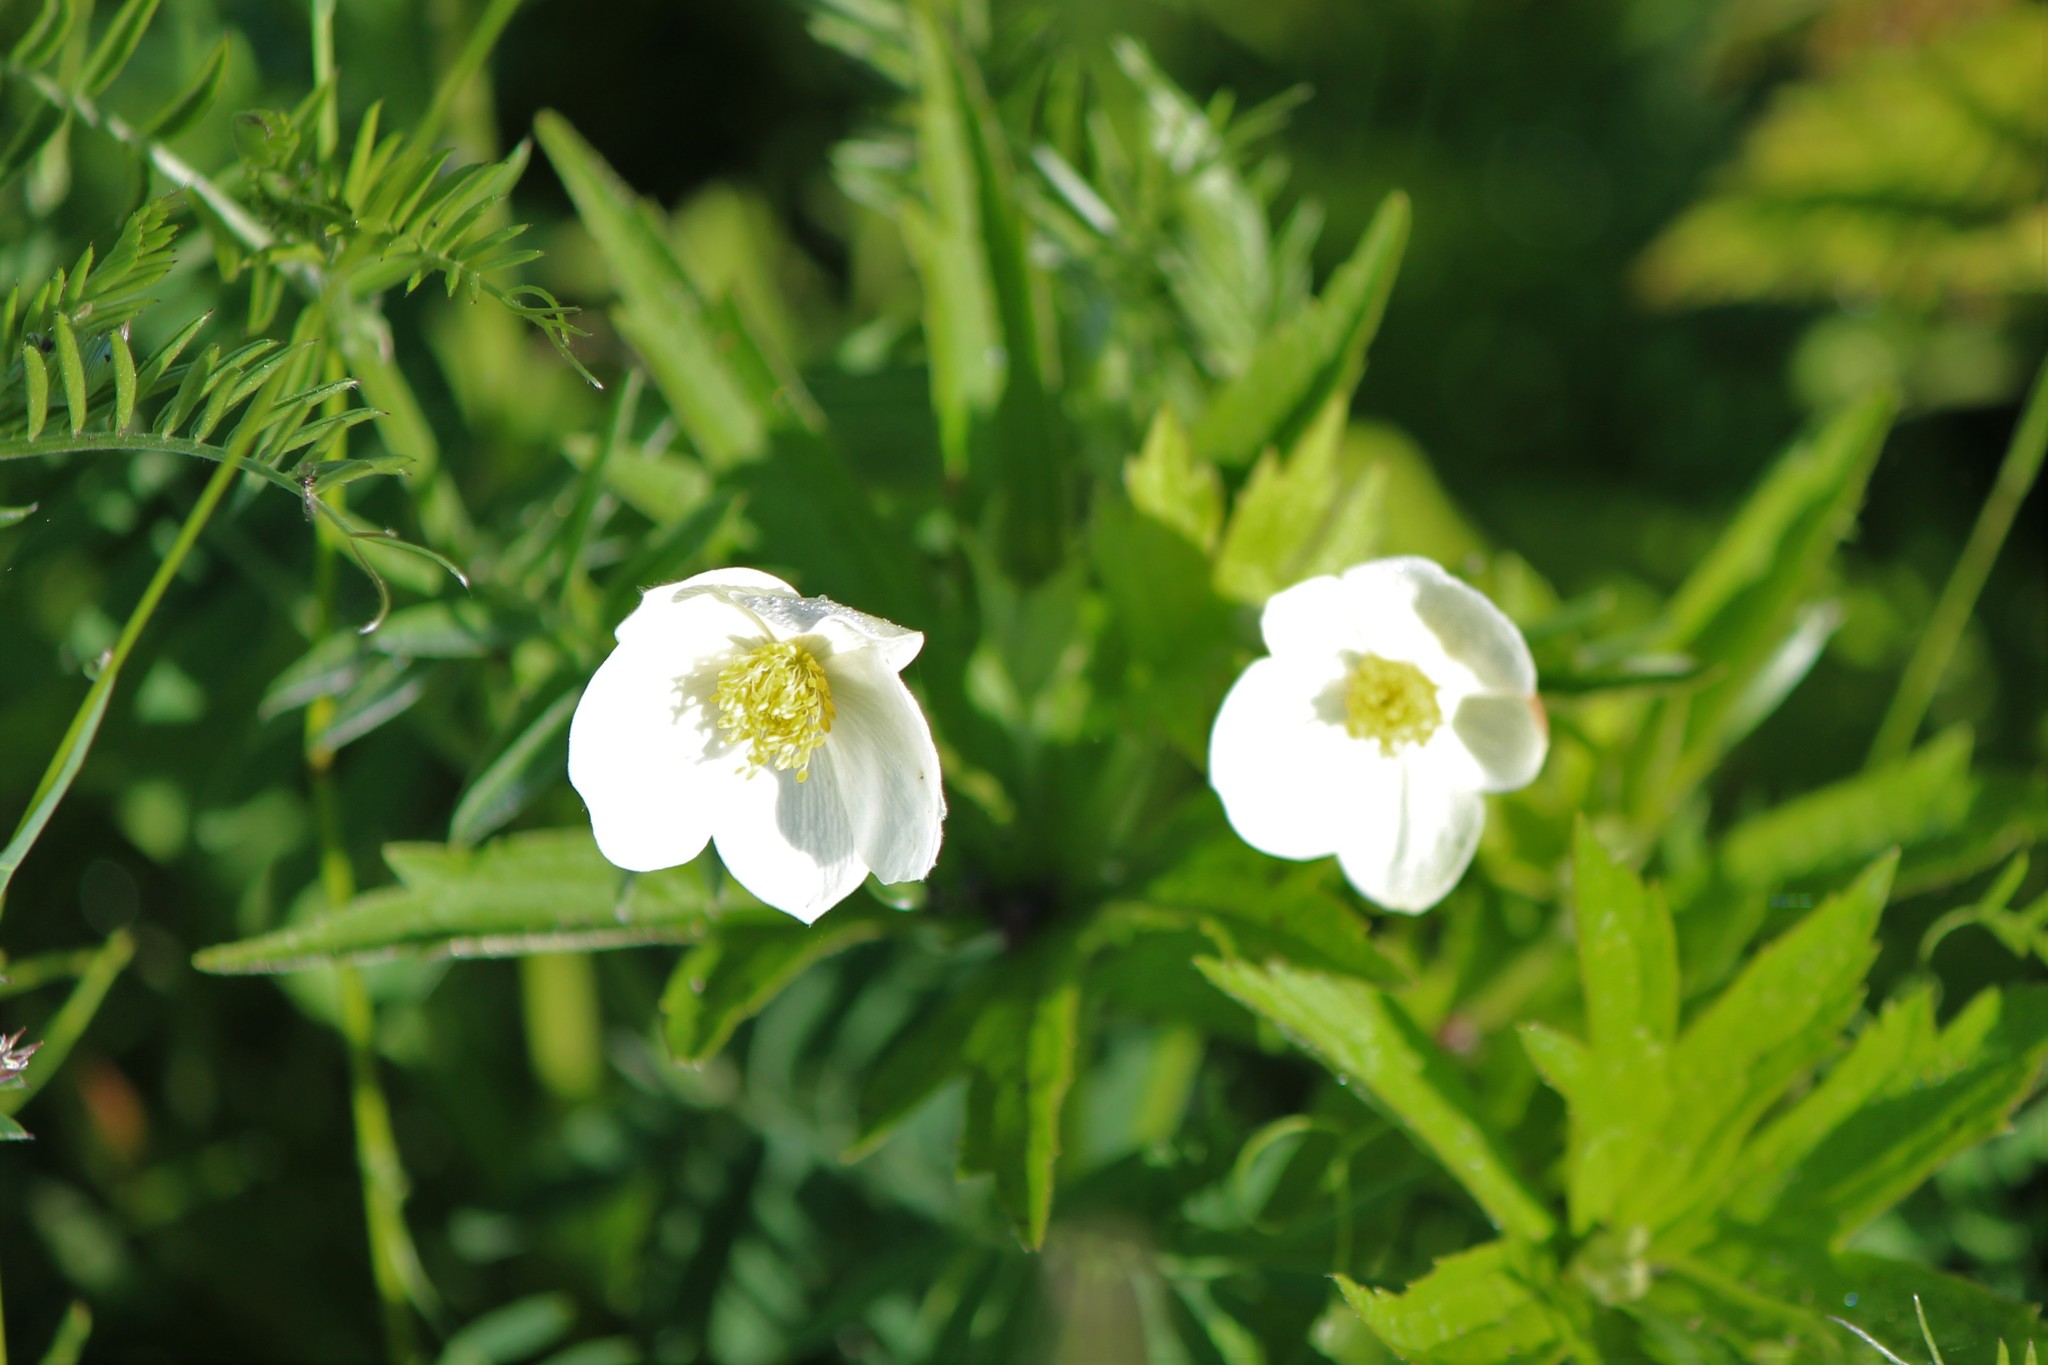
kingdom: Plantae
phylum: Tracheophyta
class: Magnoliopsida
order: Ranunculales
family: Ranunculaceae
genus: Anemonastrum
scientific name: Anemonastrum canadense
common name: Canada anemone
